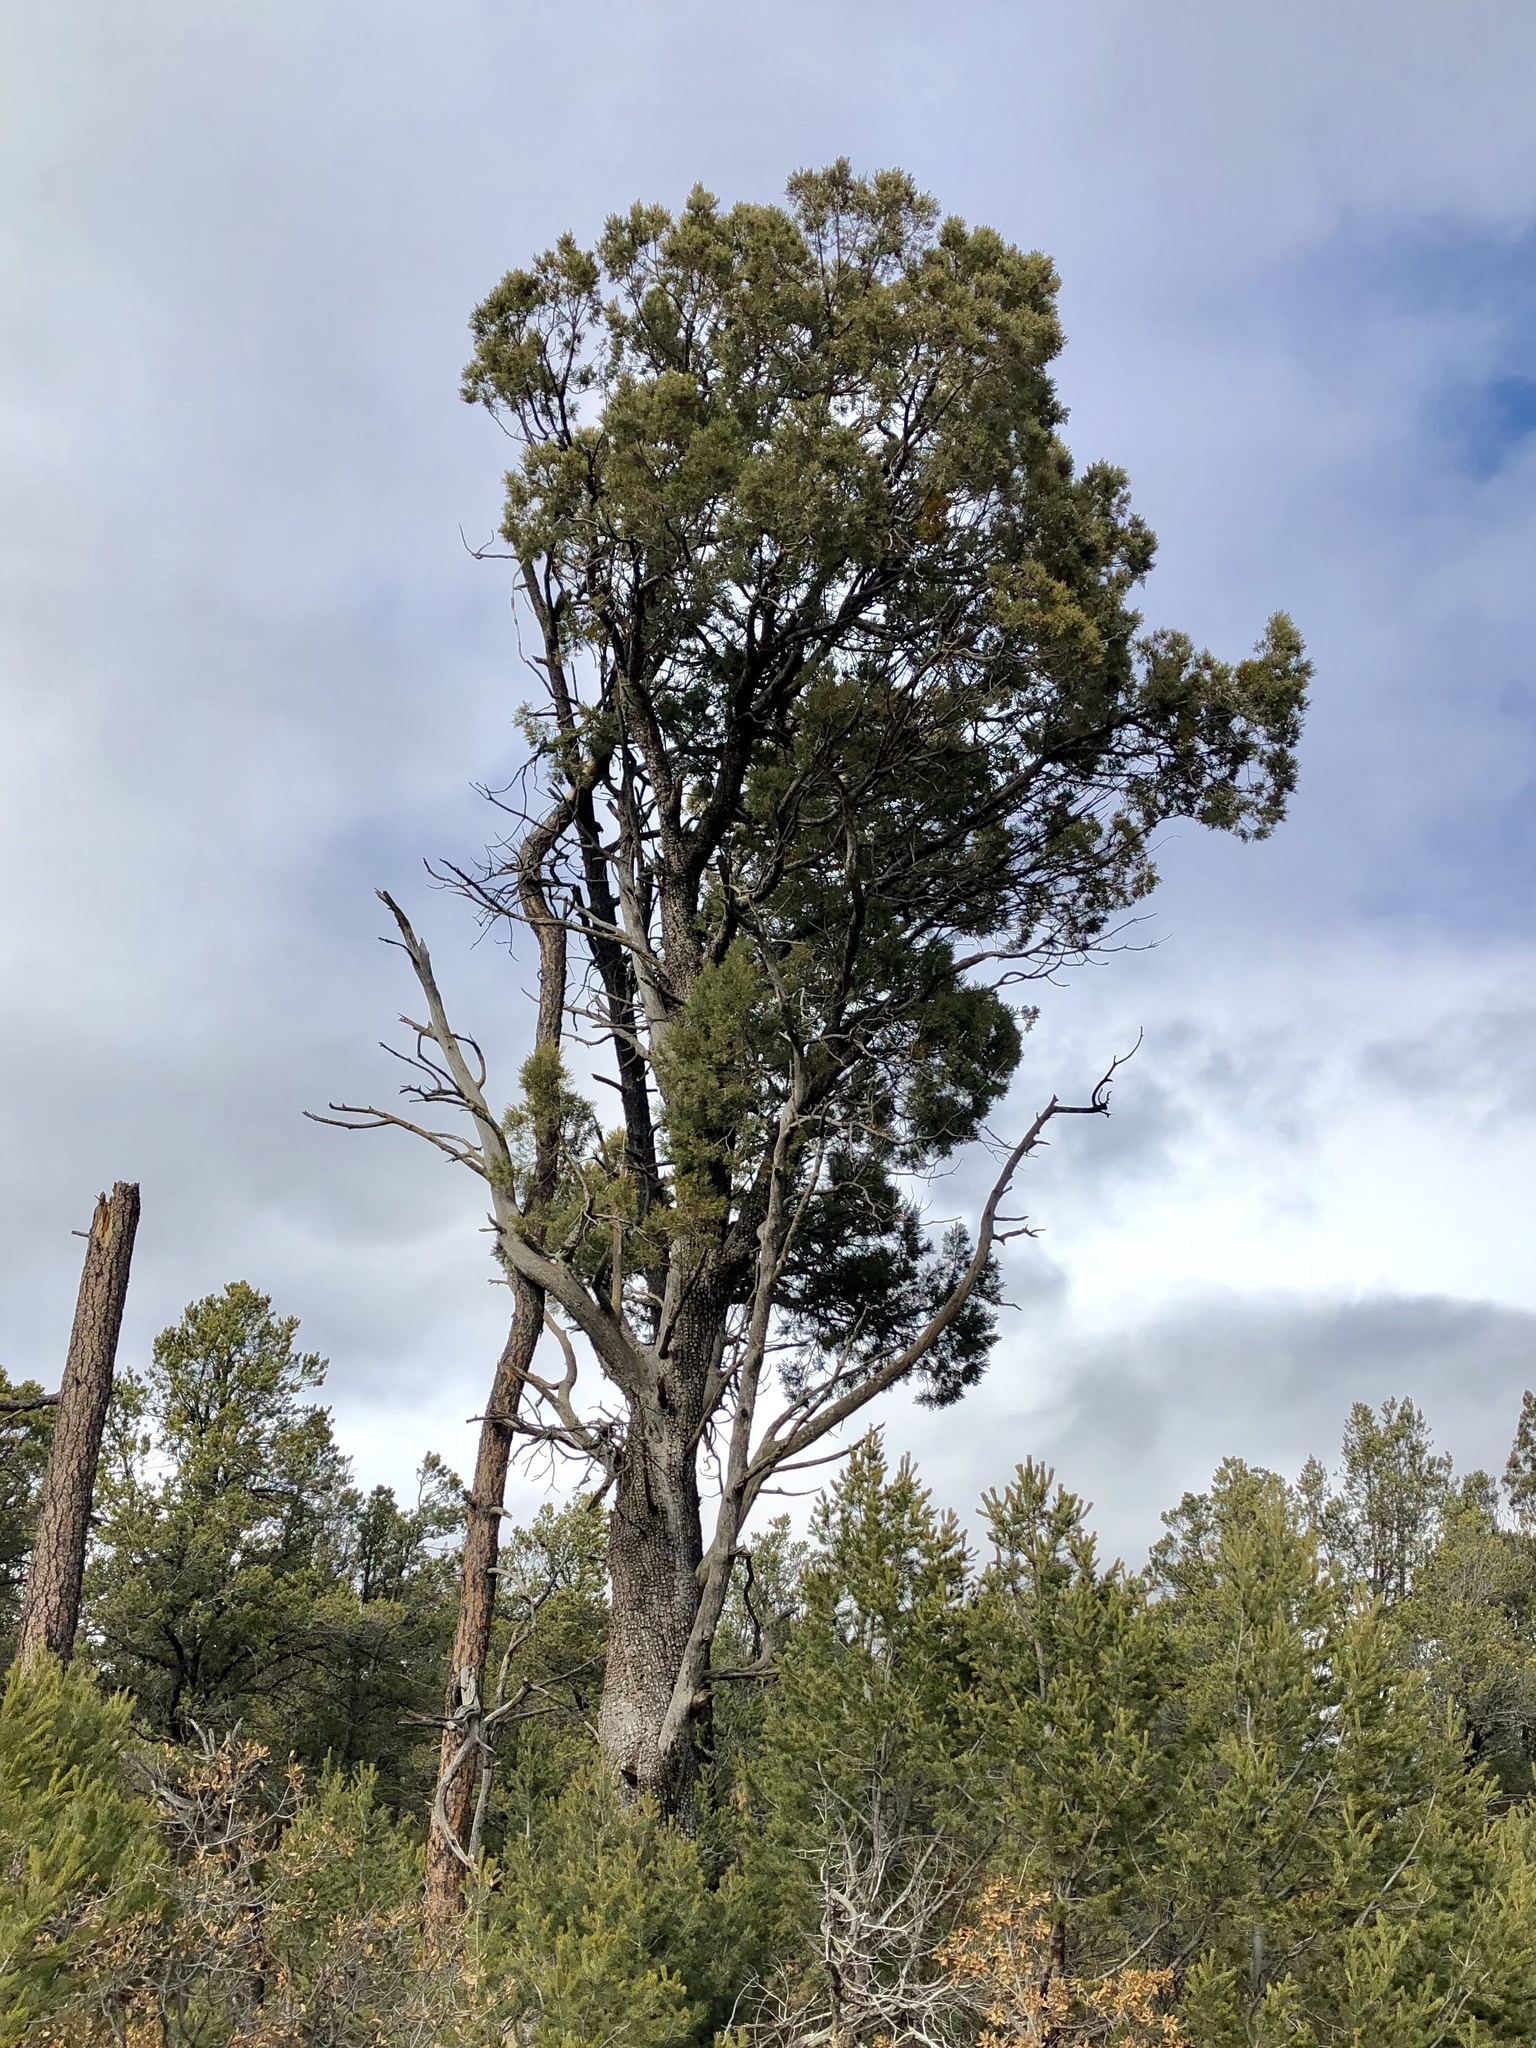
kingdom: Plantae
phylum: Tracheophyta
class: Pinopsida
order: Pinales
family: Cupressaceae
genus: Juniperus
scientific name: Juniperus deppeana
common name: Alligator juniper
